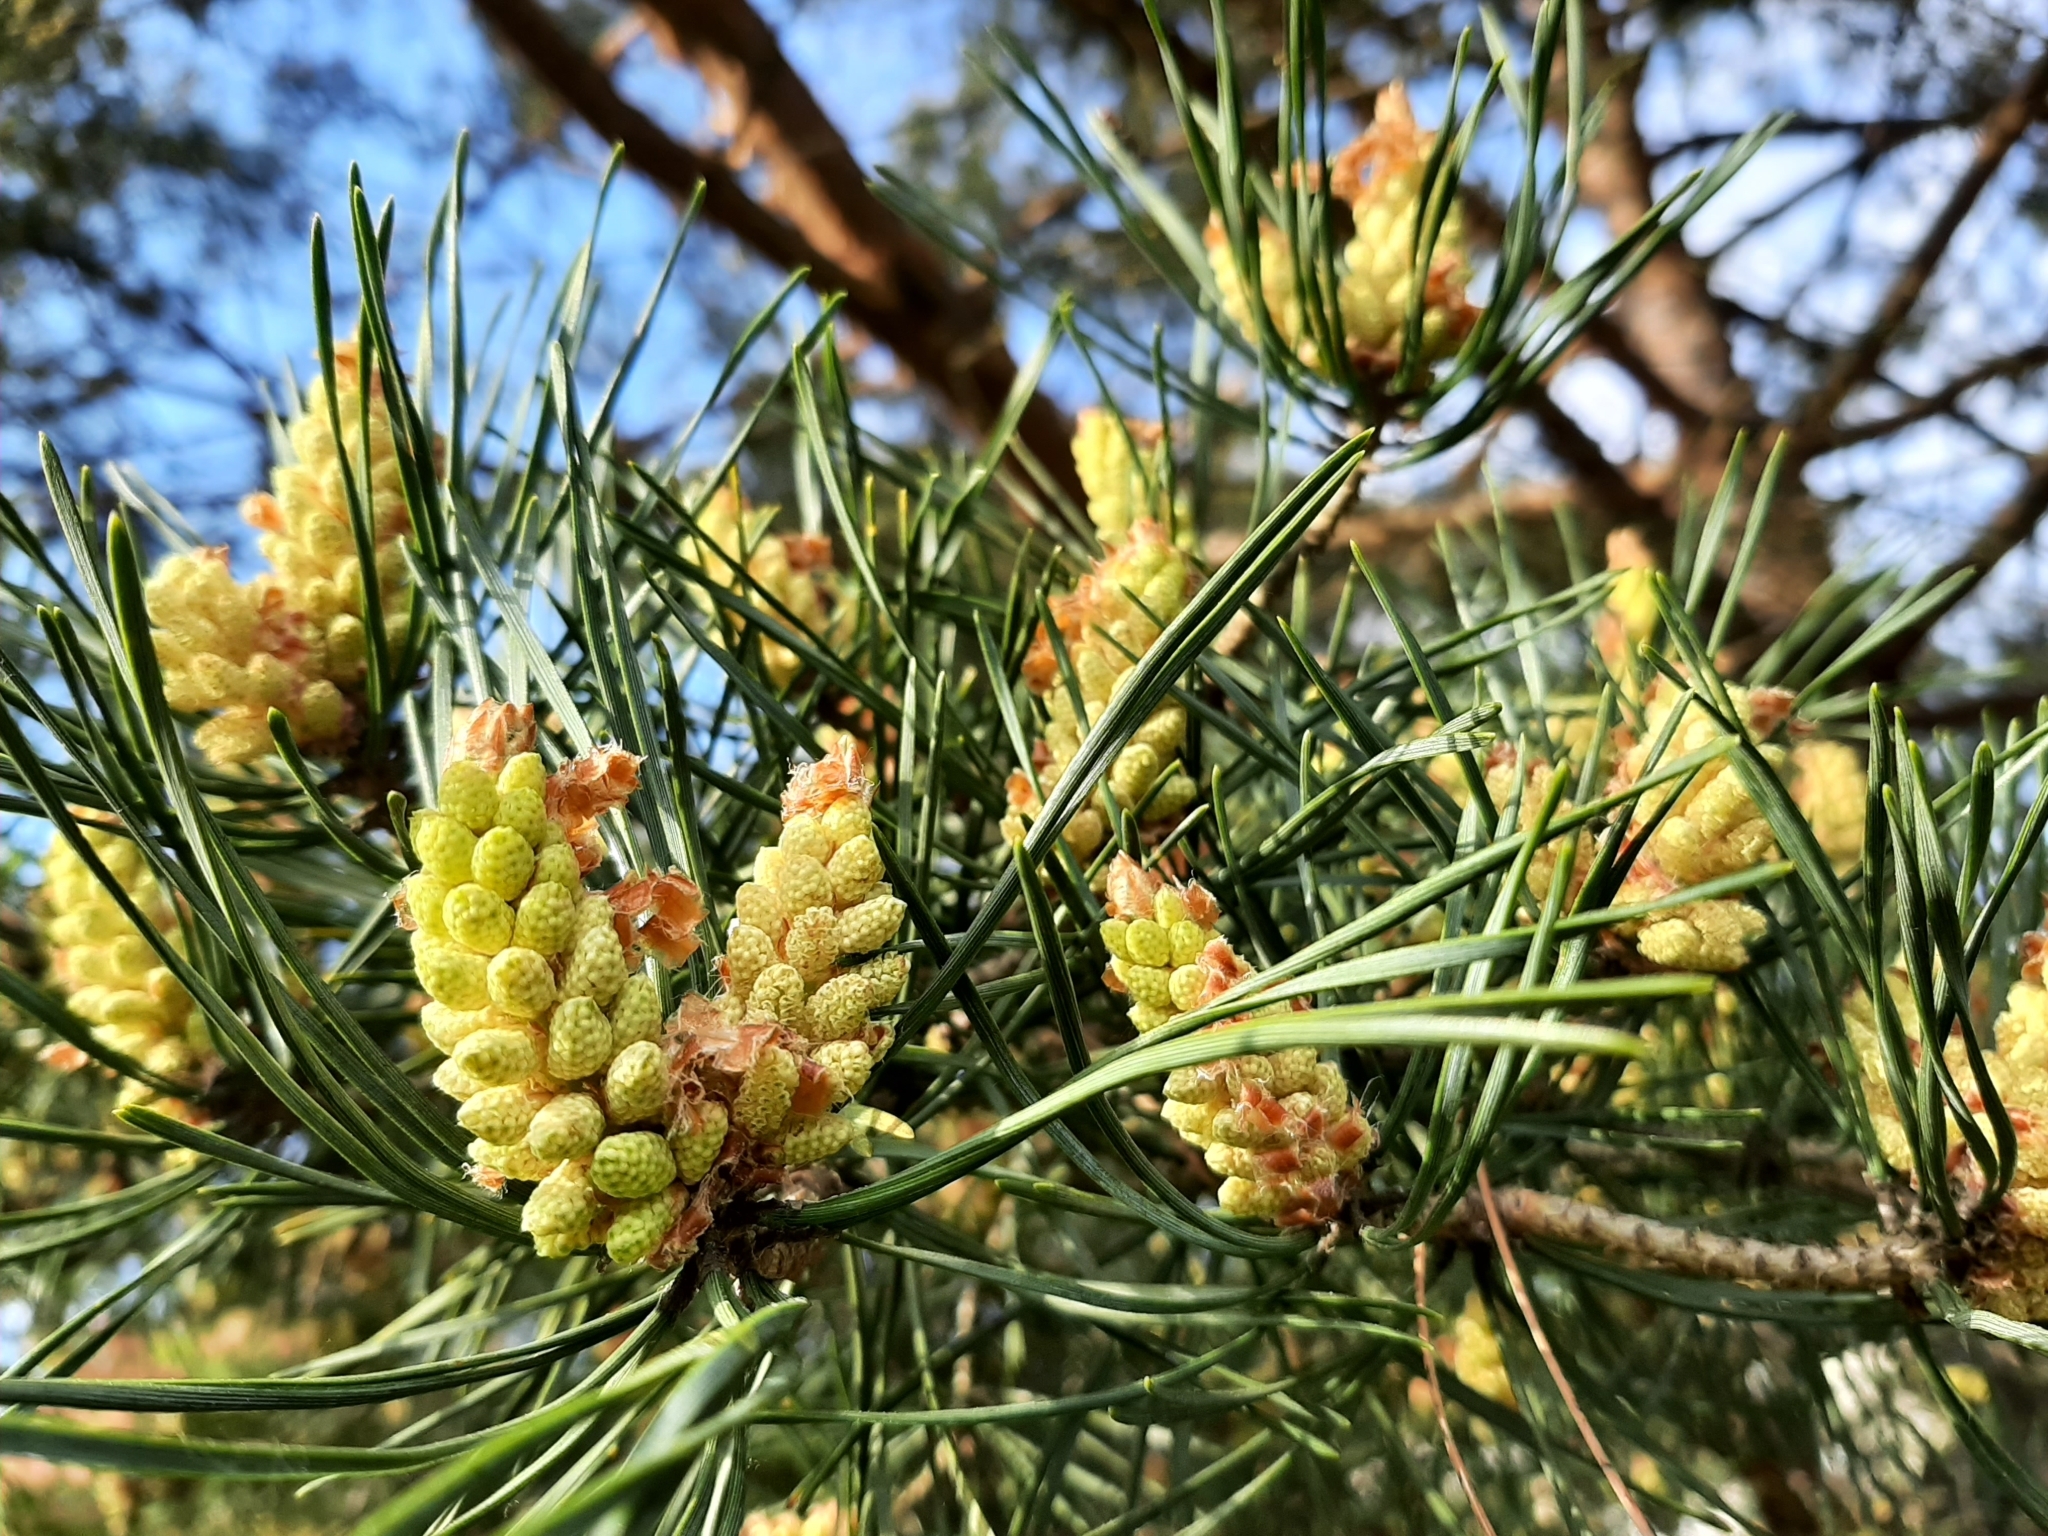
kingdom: Plantae
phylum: Tracheophyta
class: Pinopsida
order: Pinales
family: Pinaceae
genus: Pinus
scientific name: Pinus sylvestris
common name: Scots pine
